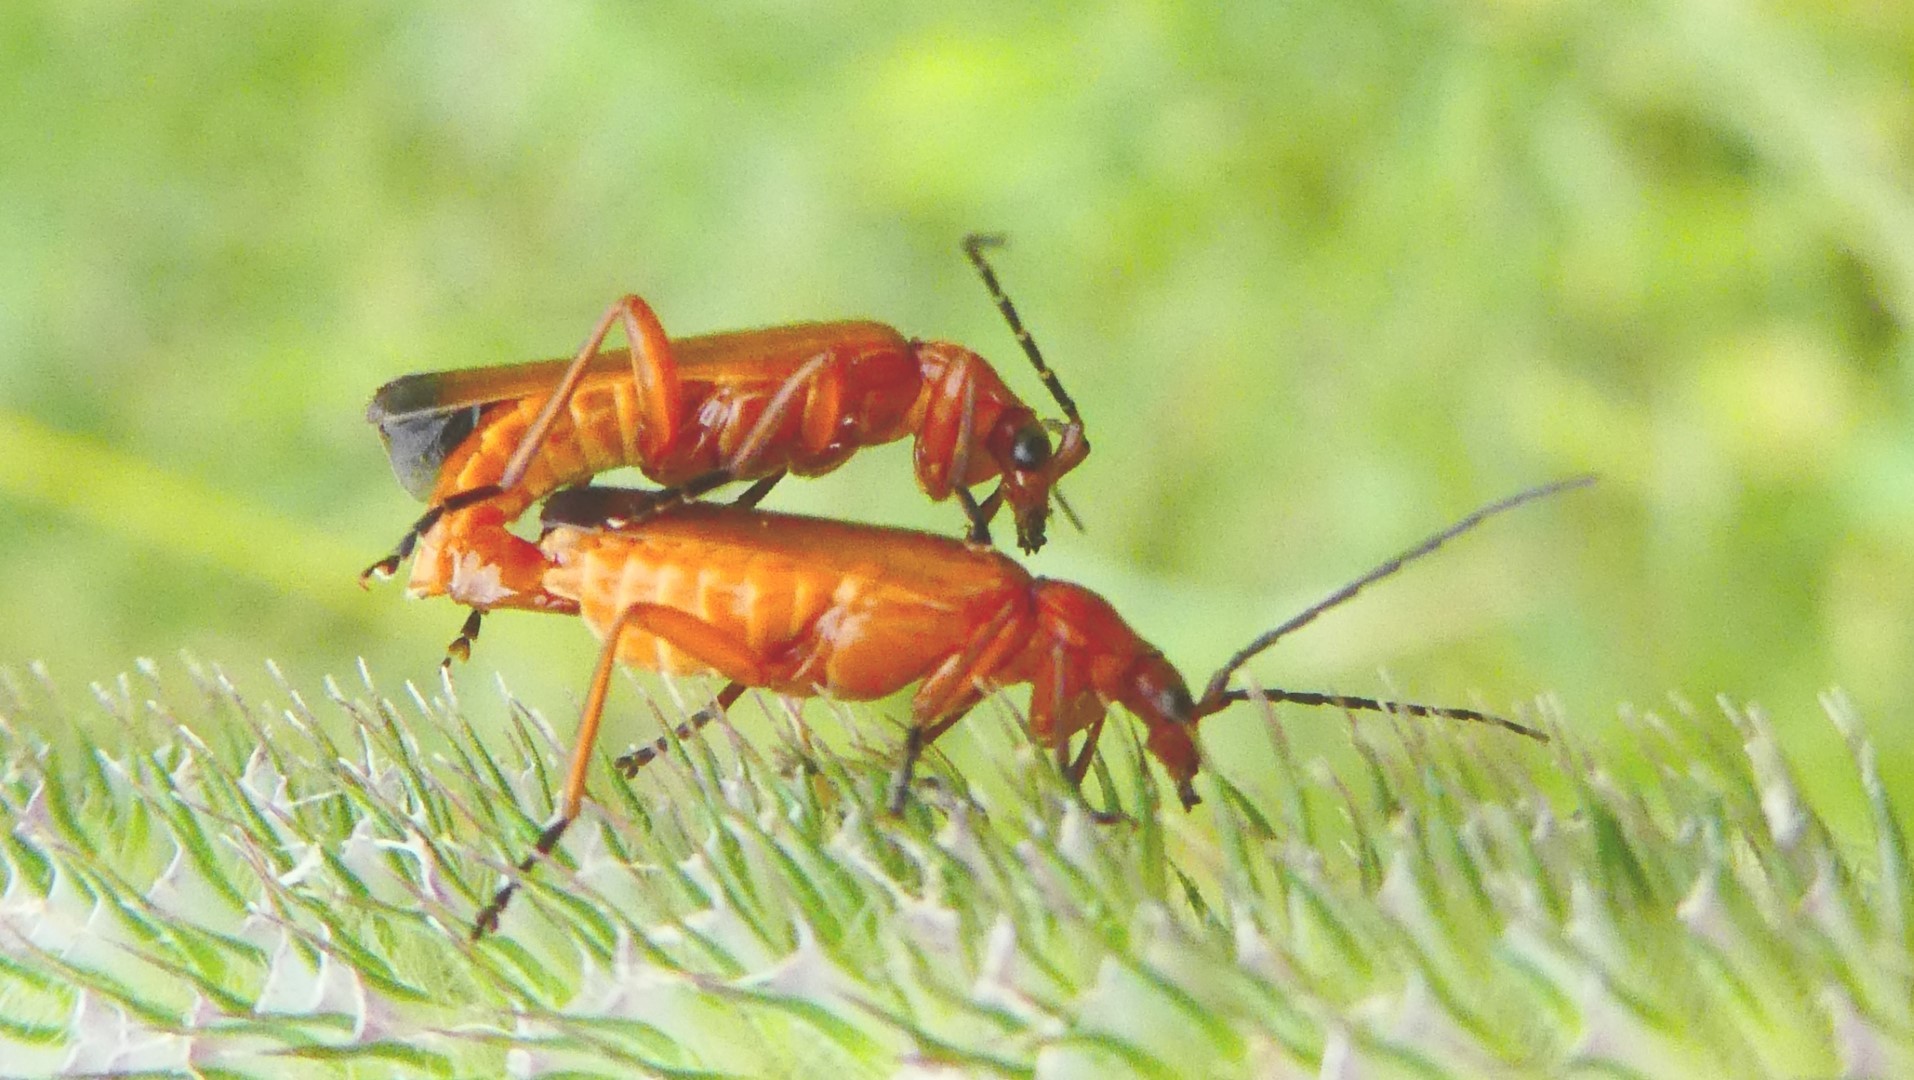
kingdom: Animalia
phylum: Arthropoda
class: Insecta
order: Coleoptera
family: Cantharidae
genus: Rhagonycha
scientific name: Rhagonycha fulva
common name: Common red soldier beetle
